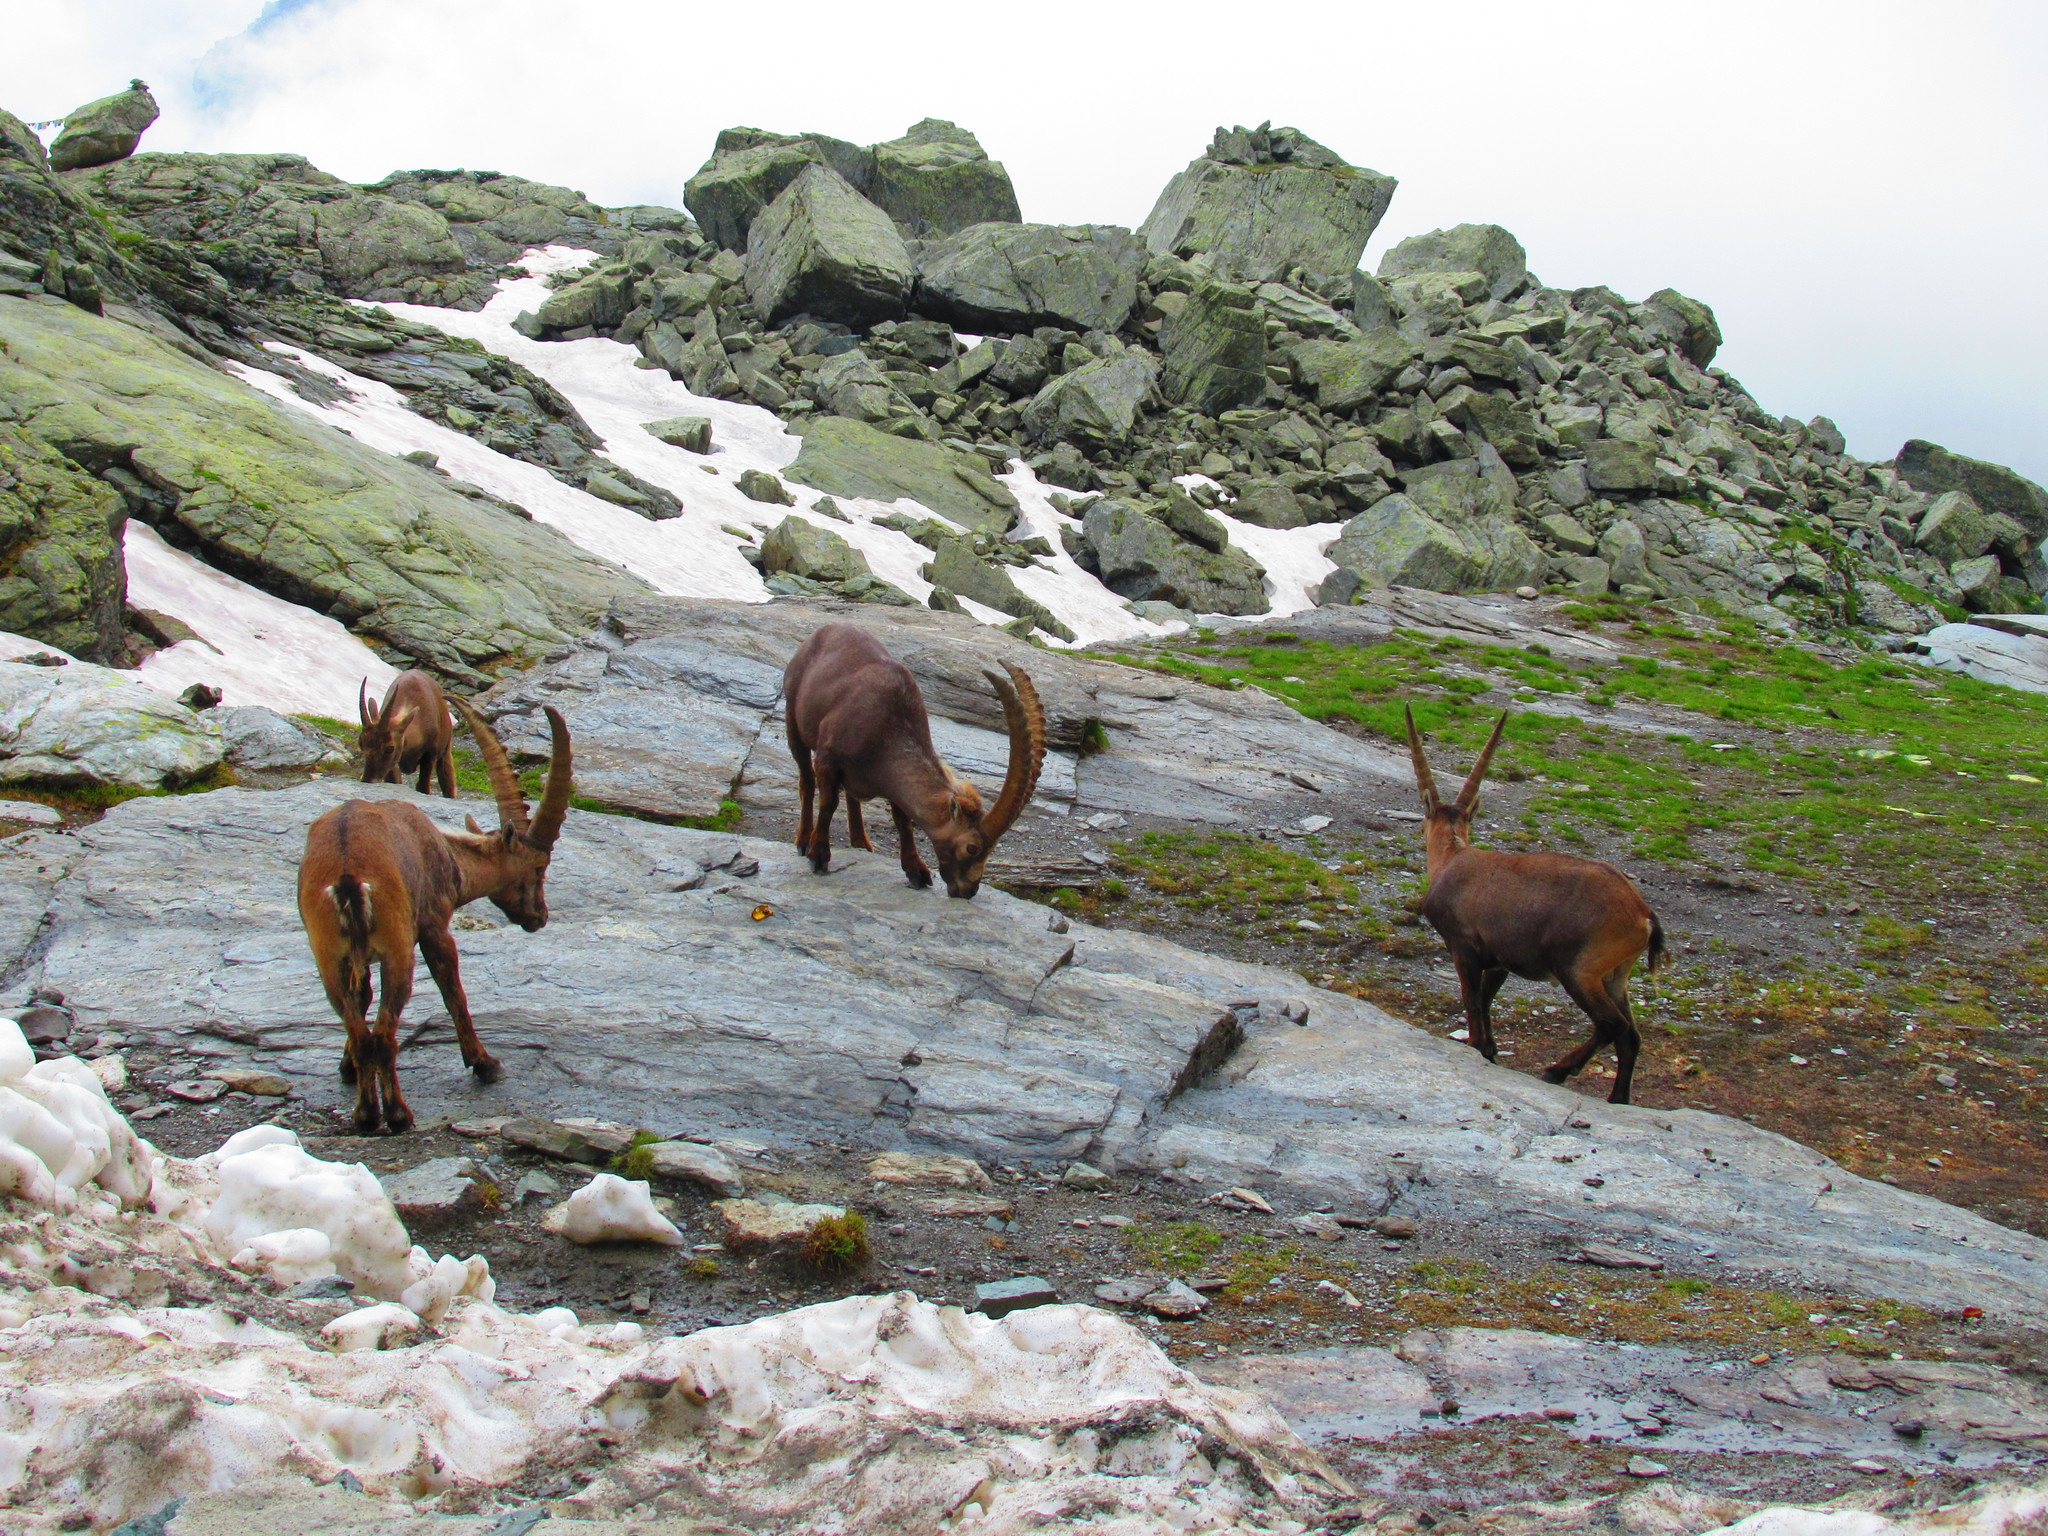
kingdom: Animalia
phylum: Chordata
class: Mammalia
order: Artiodactyla
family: Bovidae
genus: Capra
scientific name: Capra ibex
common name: Alpine ibex
